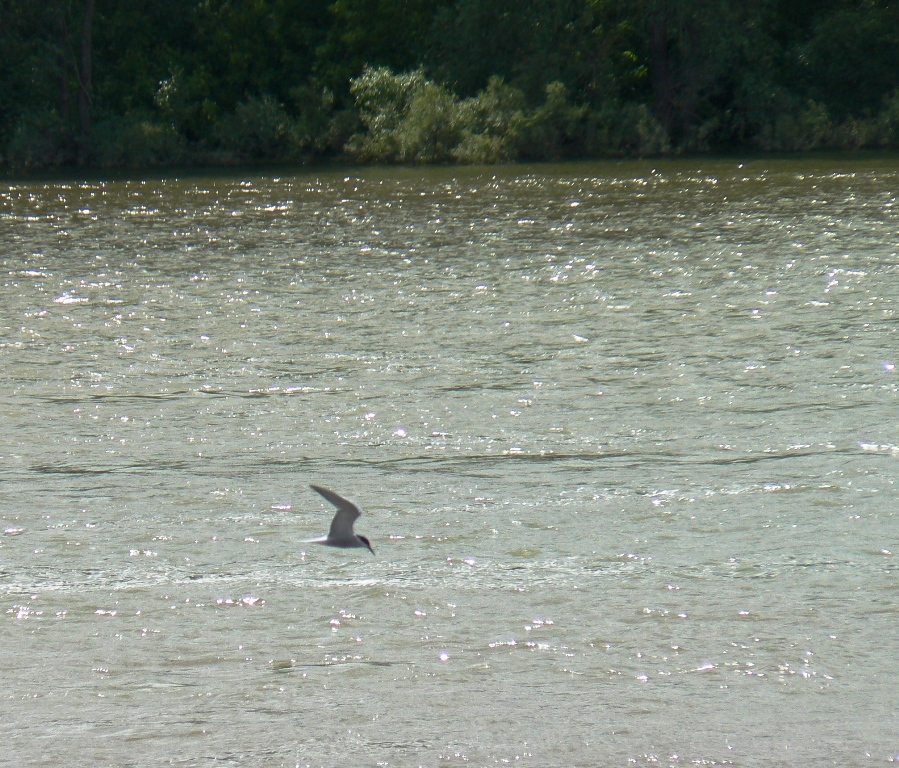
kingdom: Animalia
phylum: Chordata
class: Aves
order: Charadriiformes
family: Laridae
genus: Sterna
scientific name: Sterna hirundo
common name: Common tern
